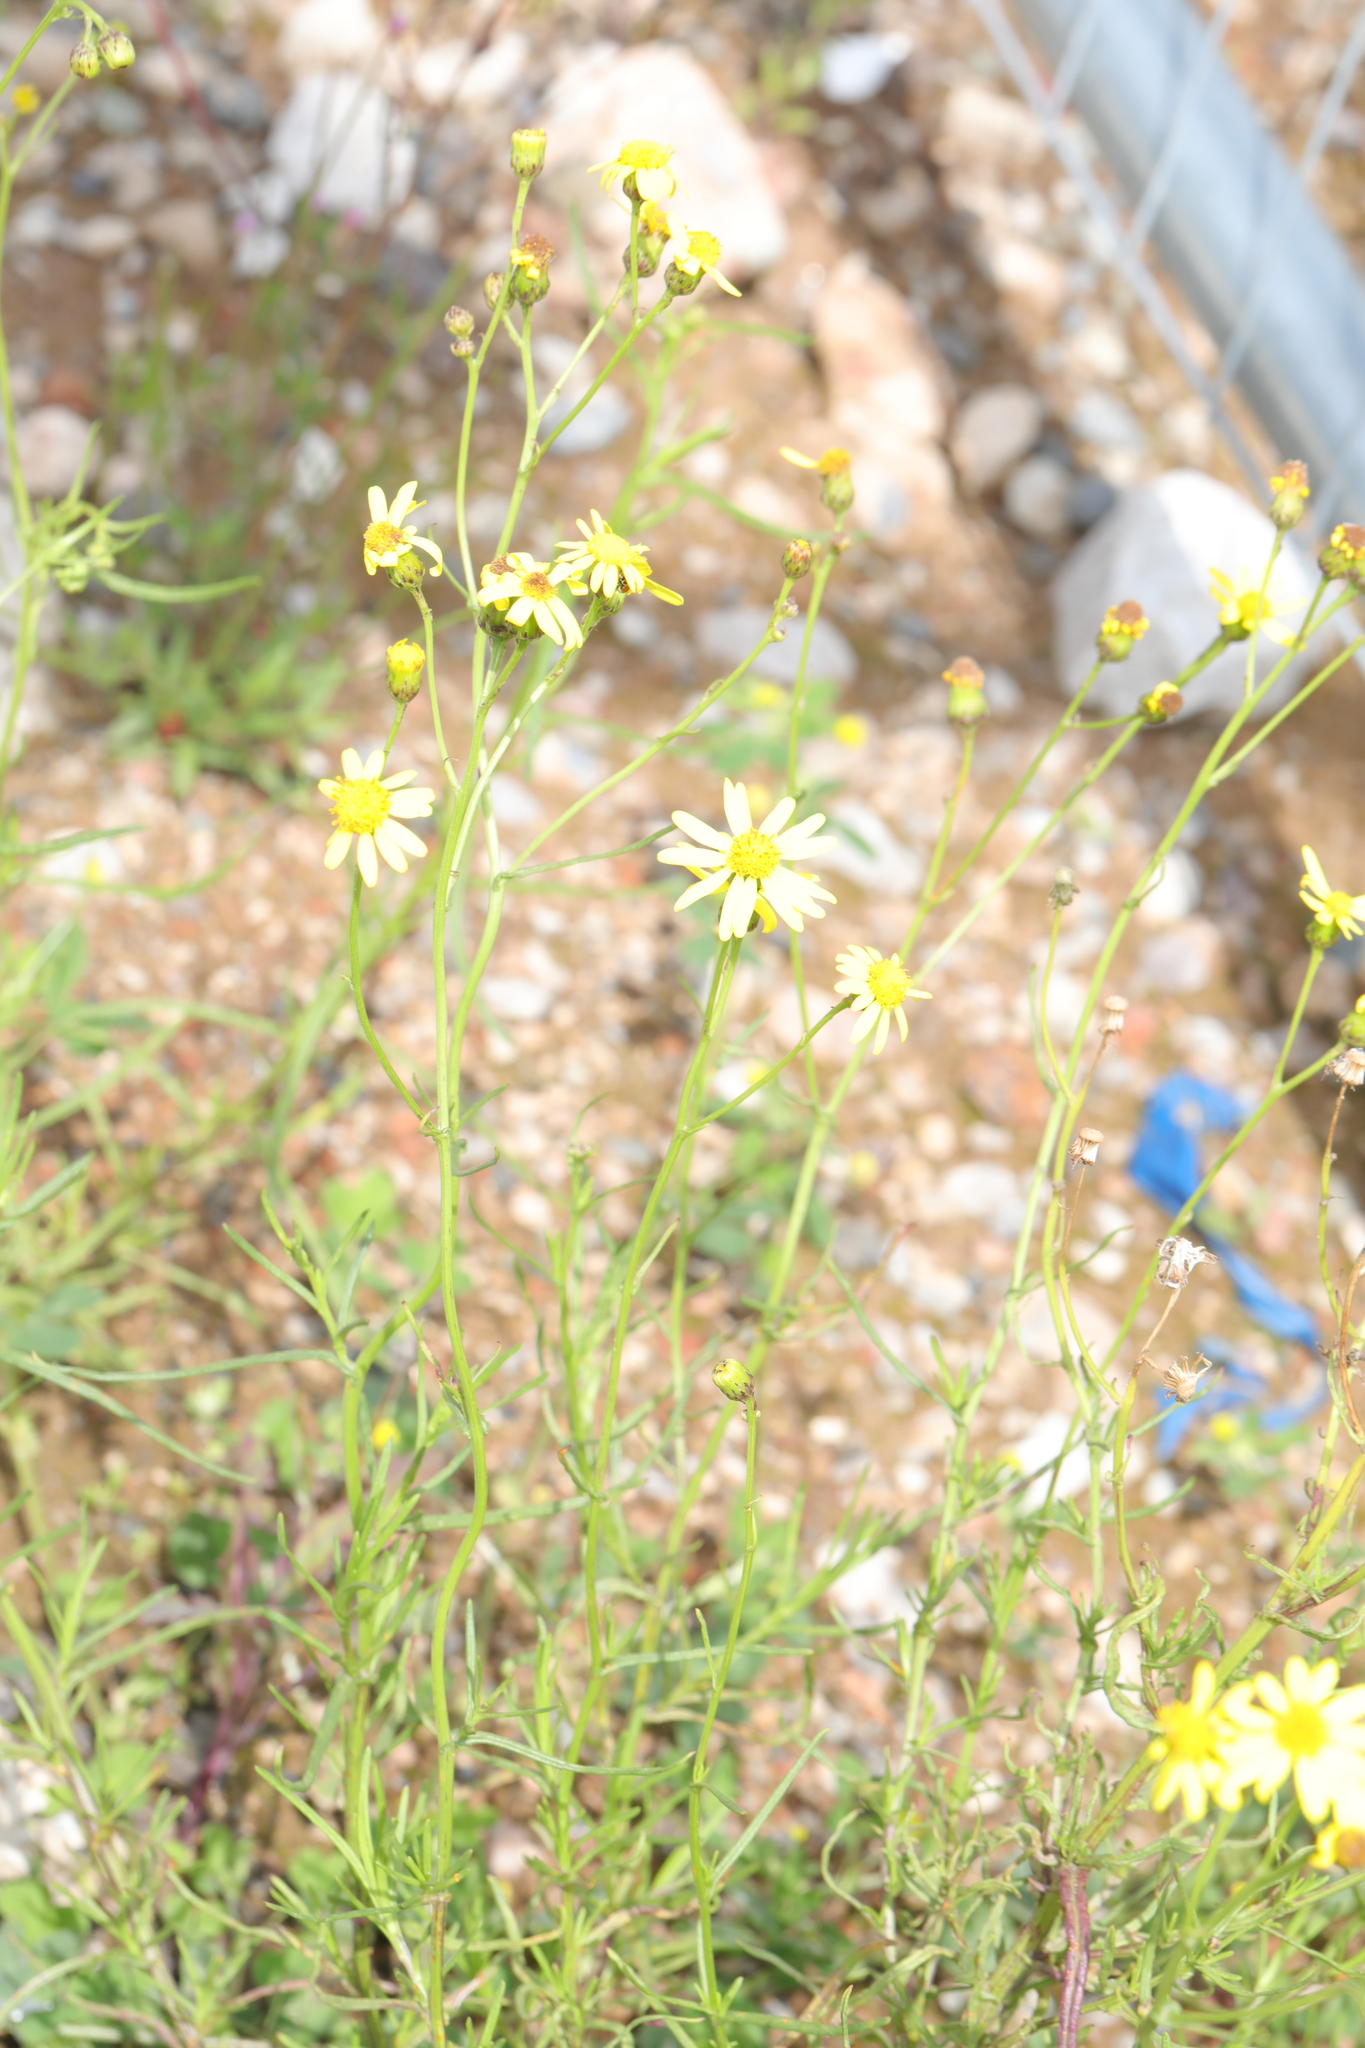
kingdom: Plantae
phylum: Tracheophyta
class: Magnoliopsida
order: Asterales
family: Asteraceae
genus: Senecio
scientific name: Senecio inaequidens
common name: Narrow-leaved ragwort
